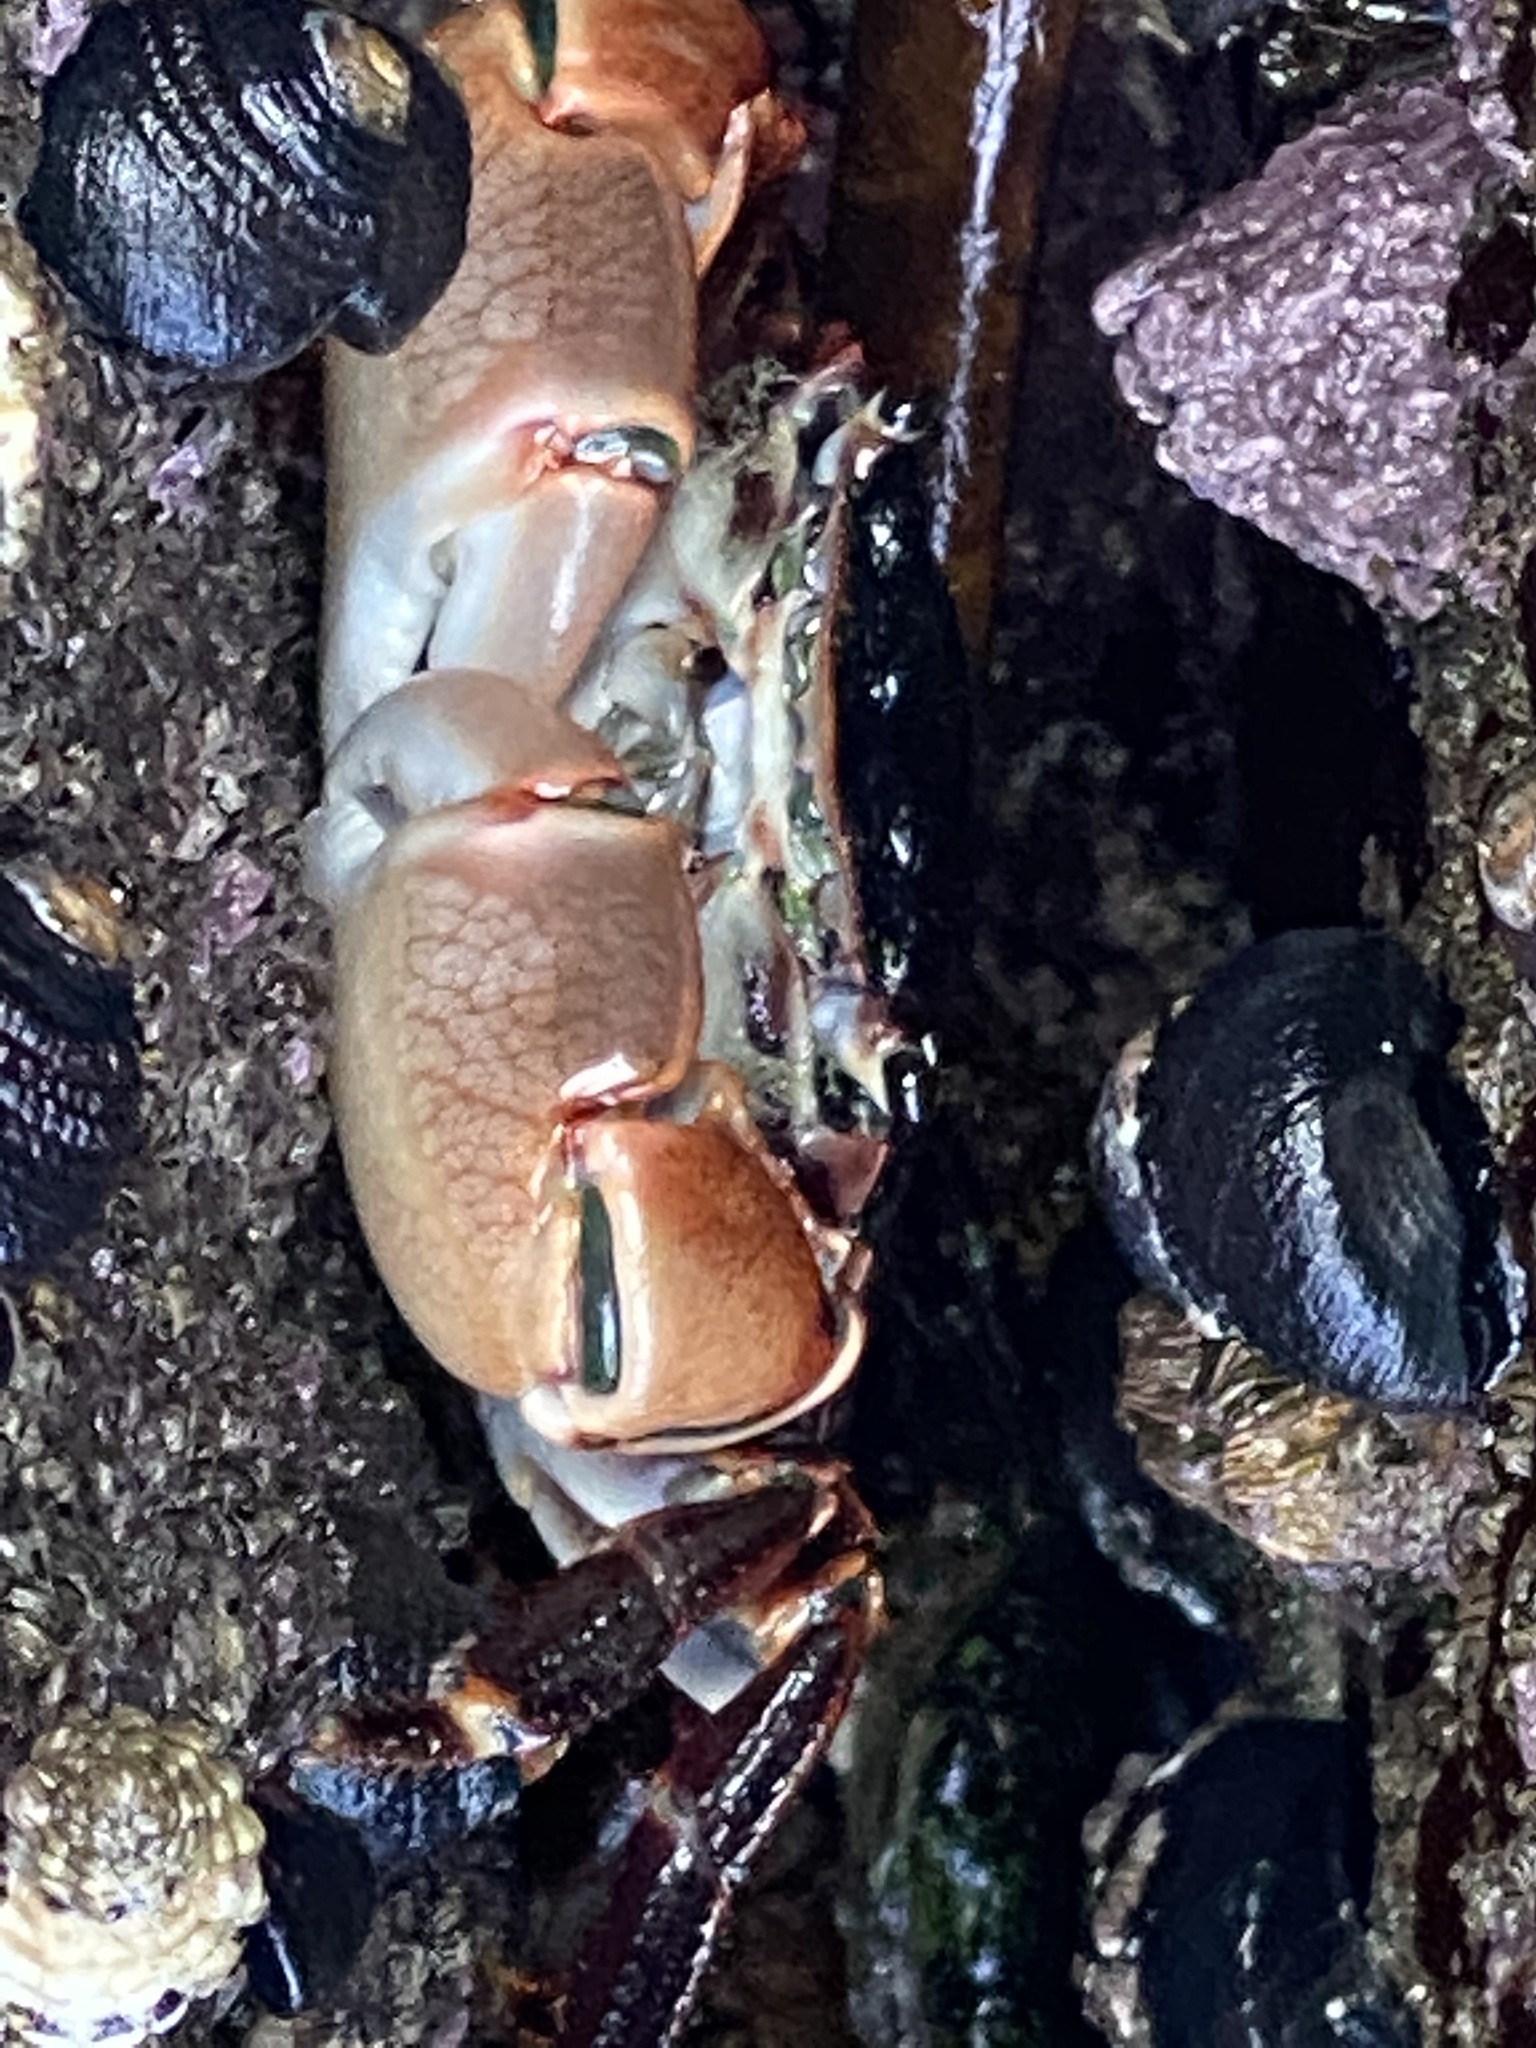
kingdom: Animalia
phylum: Arthropoda
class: Malacostraca
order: Decapoda
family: Grapsidae
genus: Pachygrapsus
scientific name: Pachygrapsus crassipes
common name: Striped shore crab
